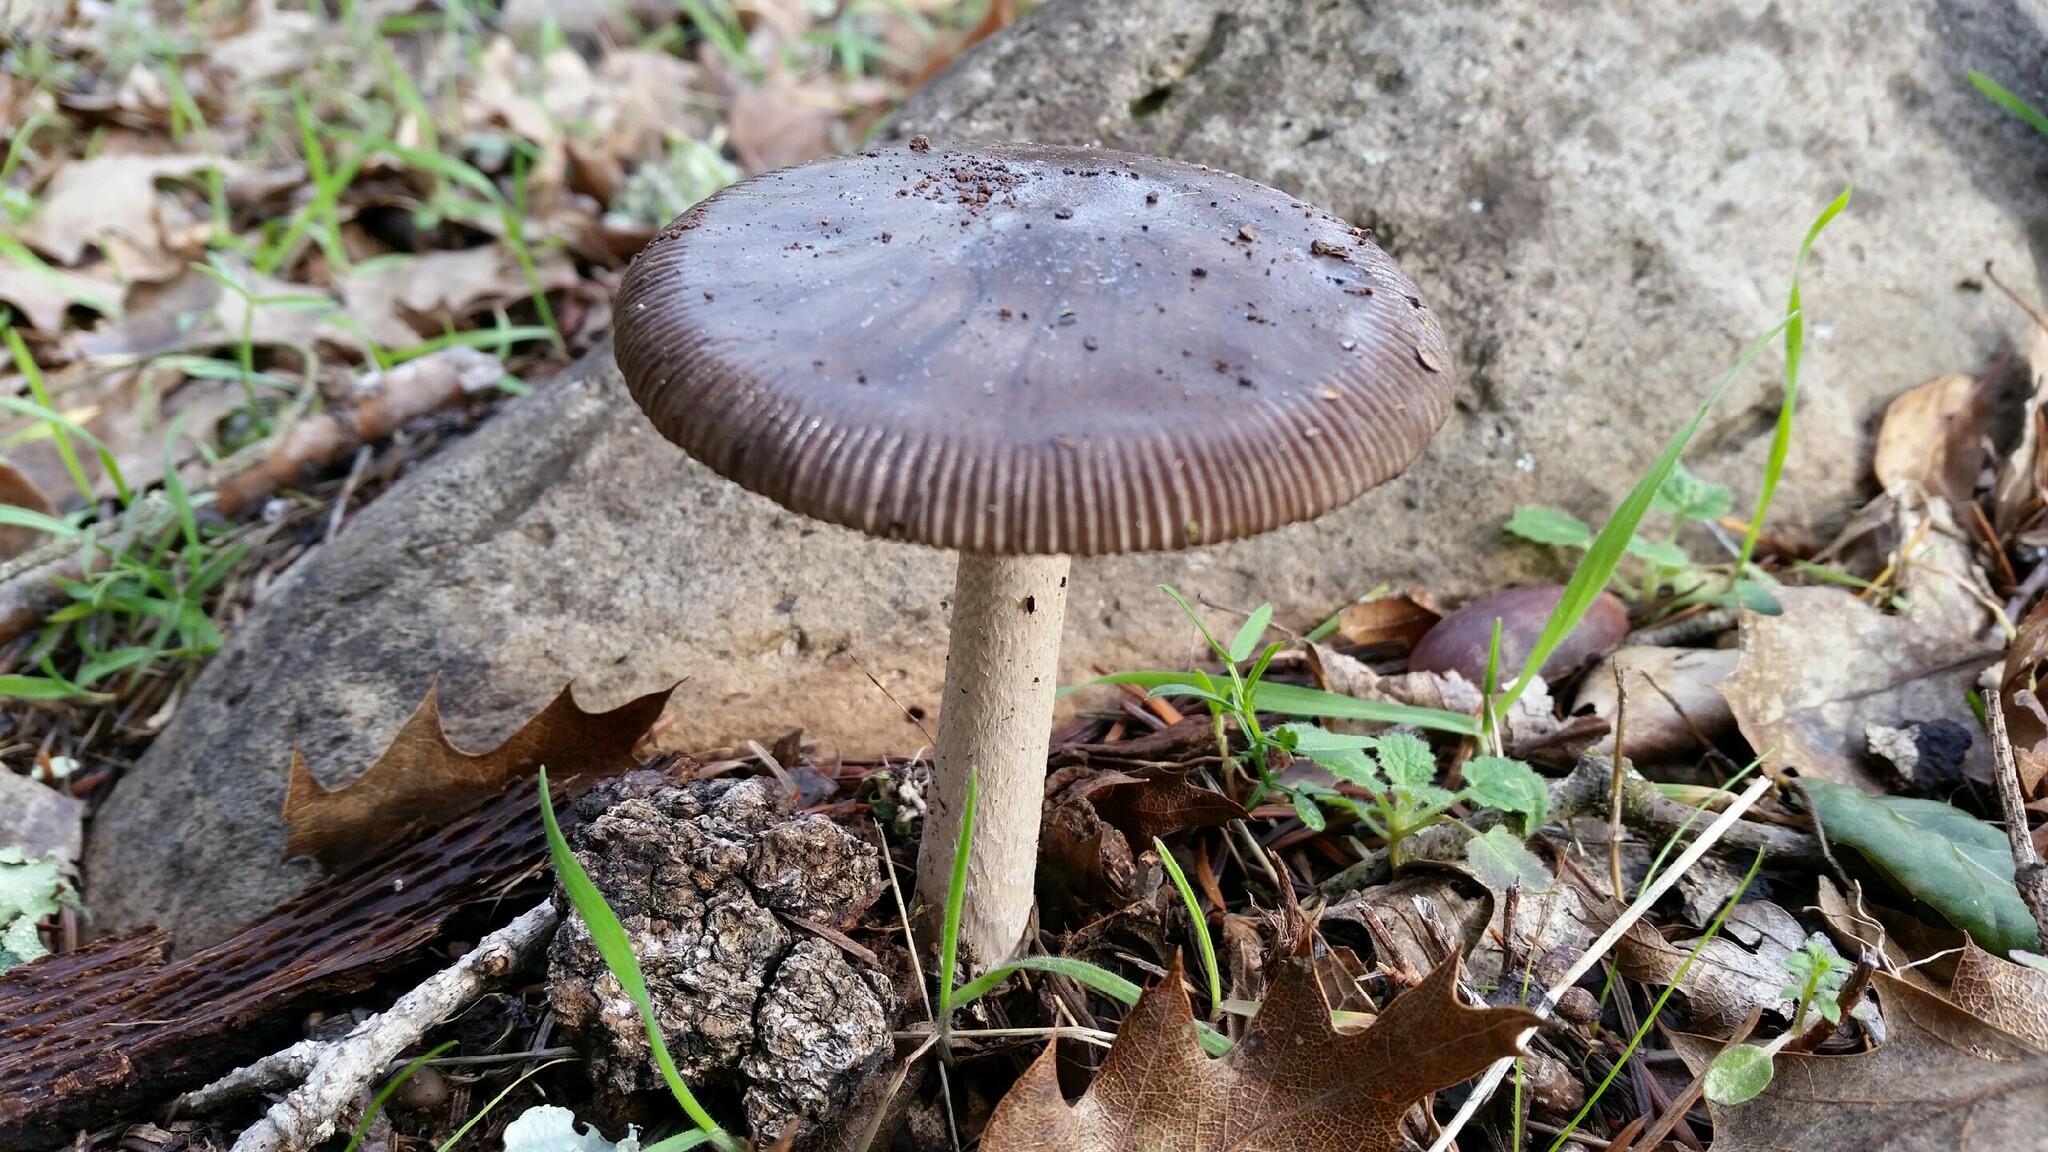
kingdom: Fungi
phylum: Basidiomycota
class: Agaricomycetes
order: Agaricales
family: Amanitaceae
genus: Amanita
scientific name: Amanita constricta
